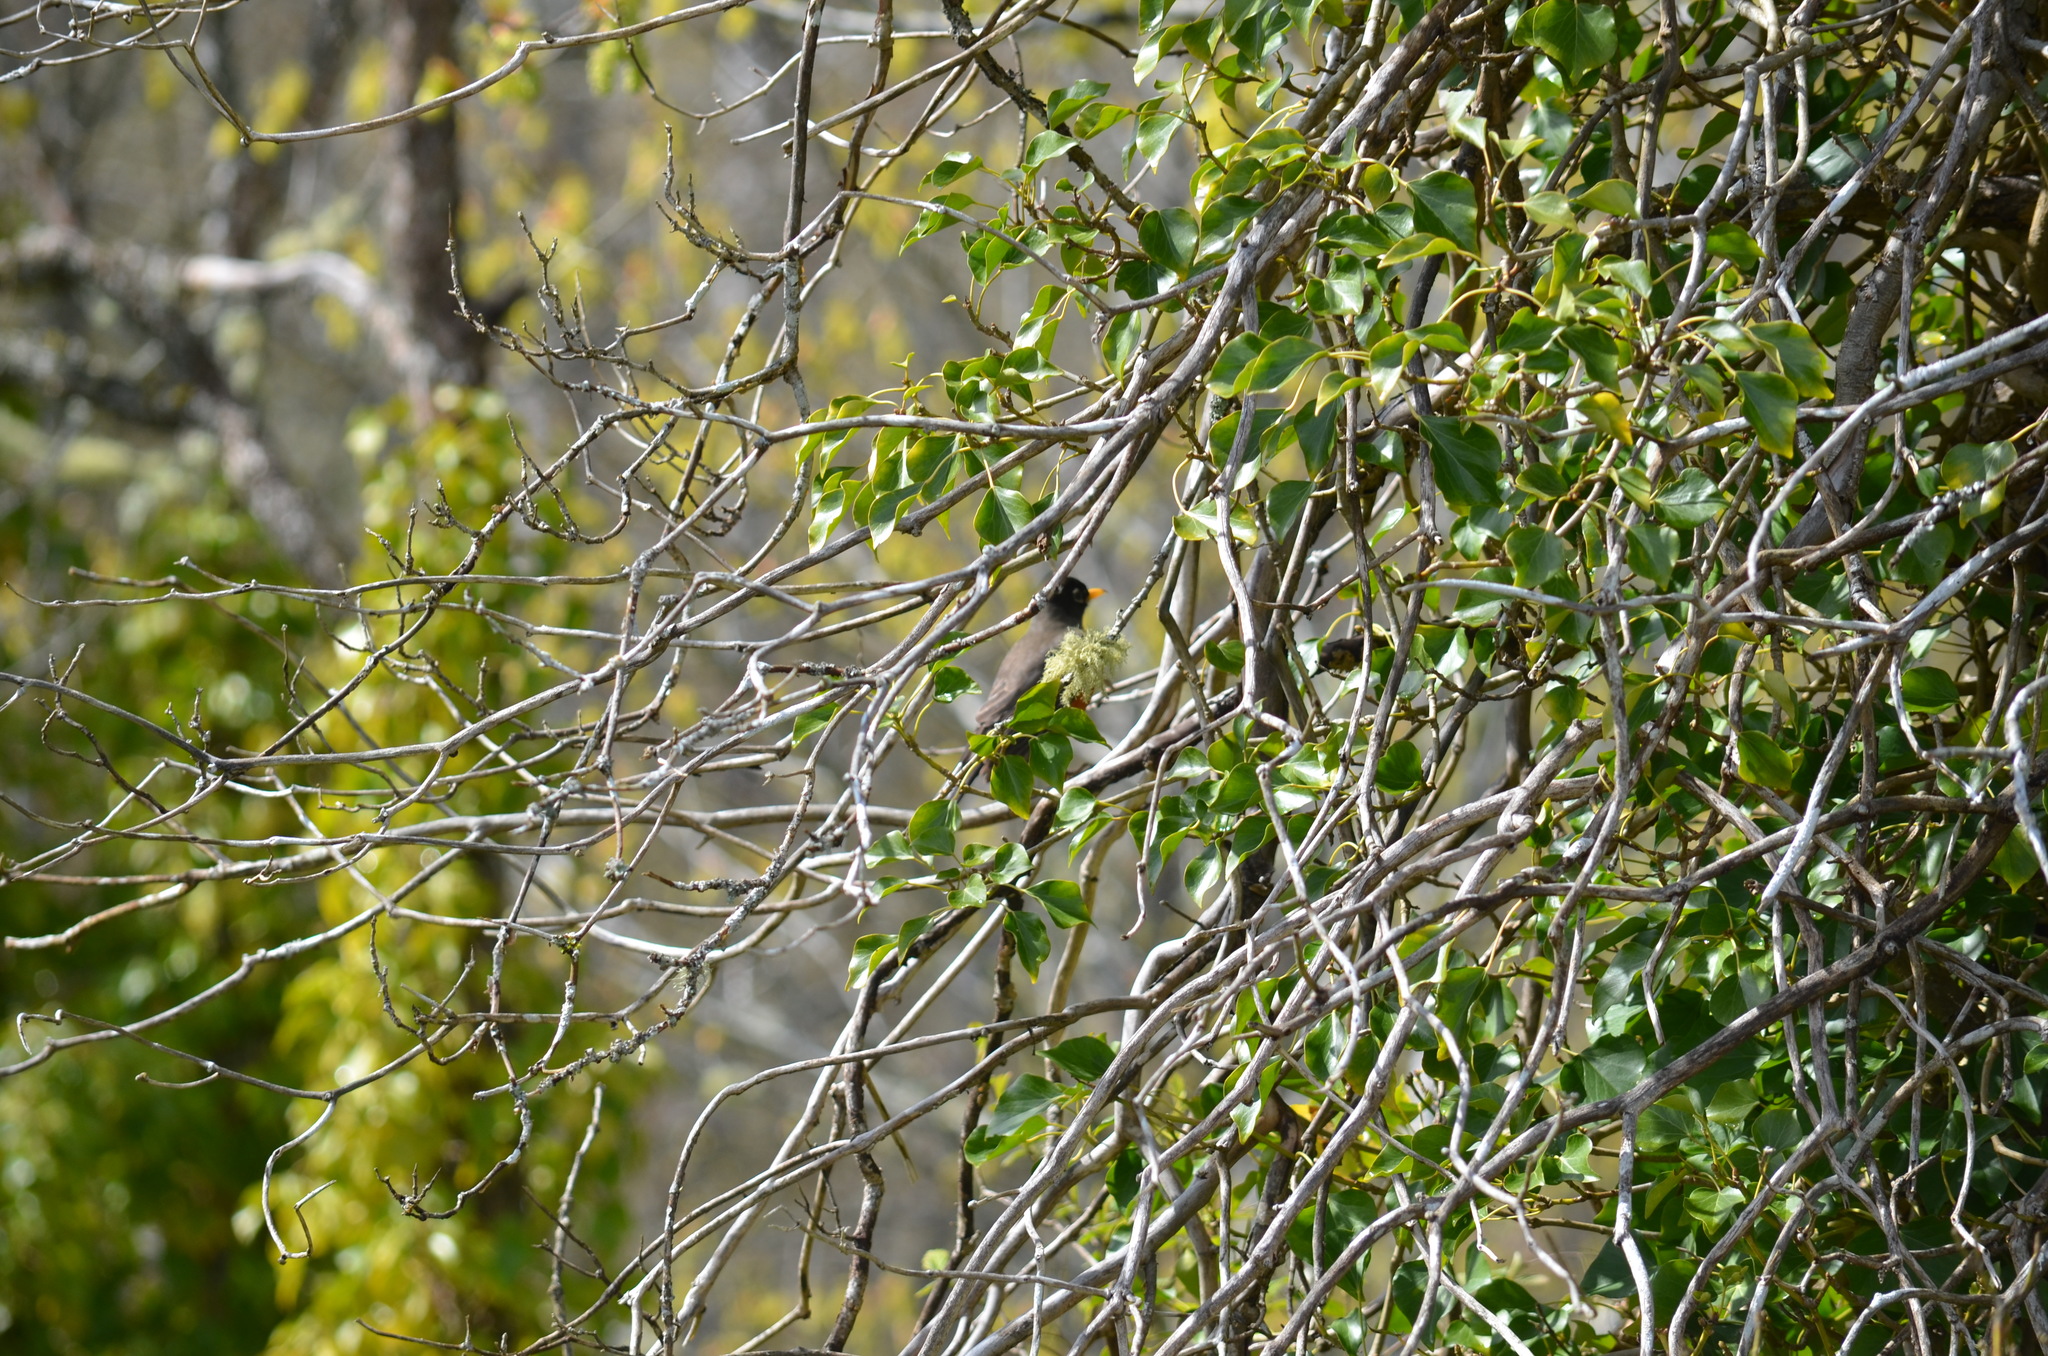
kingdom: Animalia
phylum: Chordata
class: Aves
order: Passeriformes
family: Turdidae
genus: Turdus
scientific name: Turdus migratorius
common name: American robin
